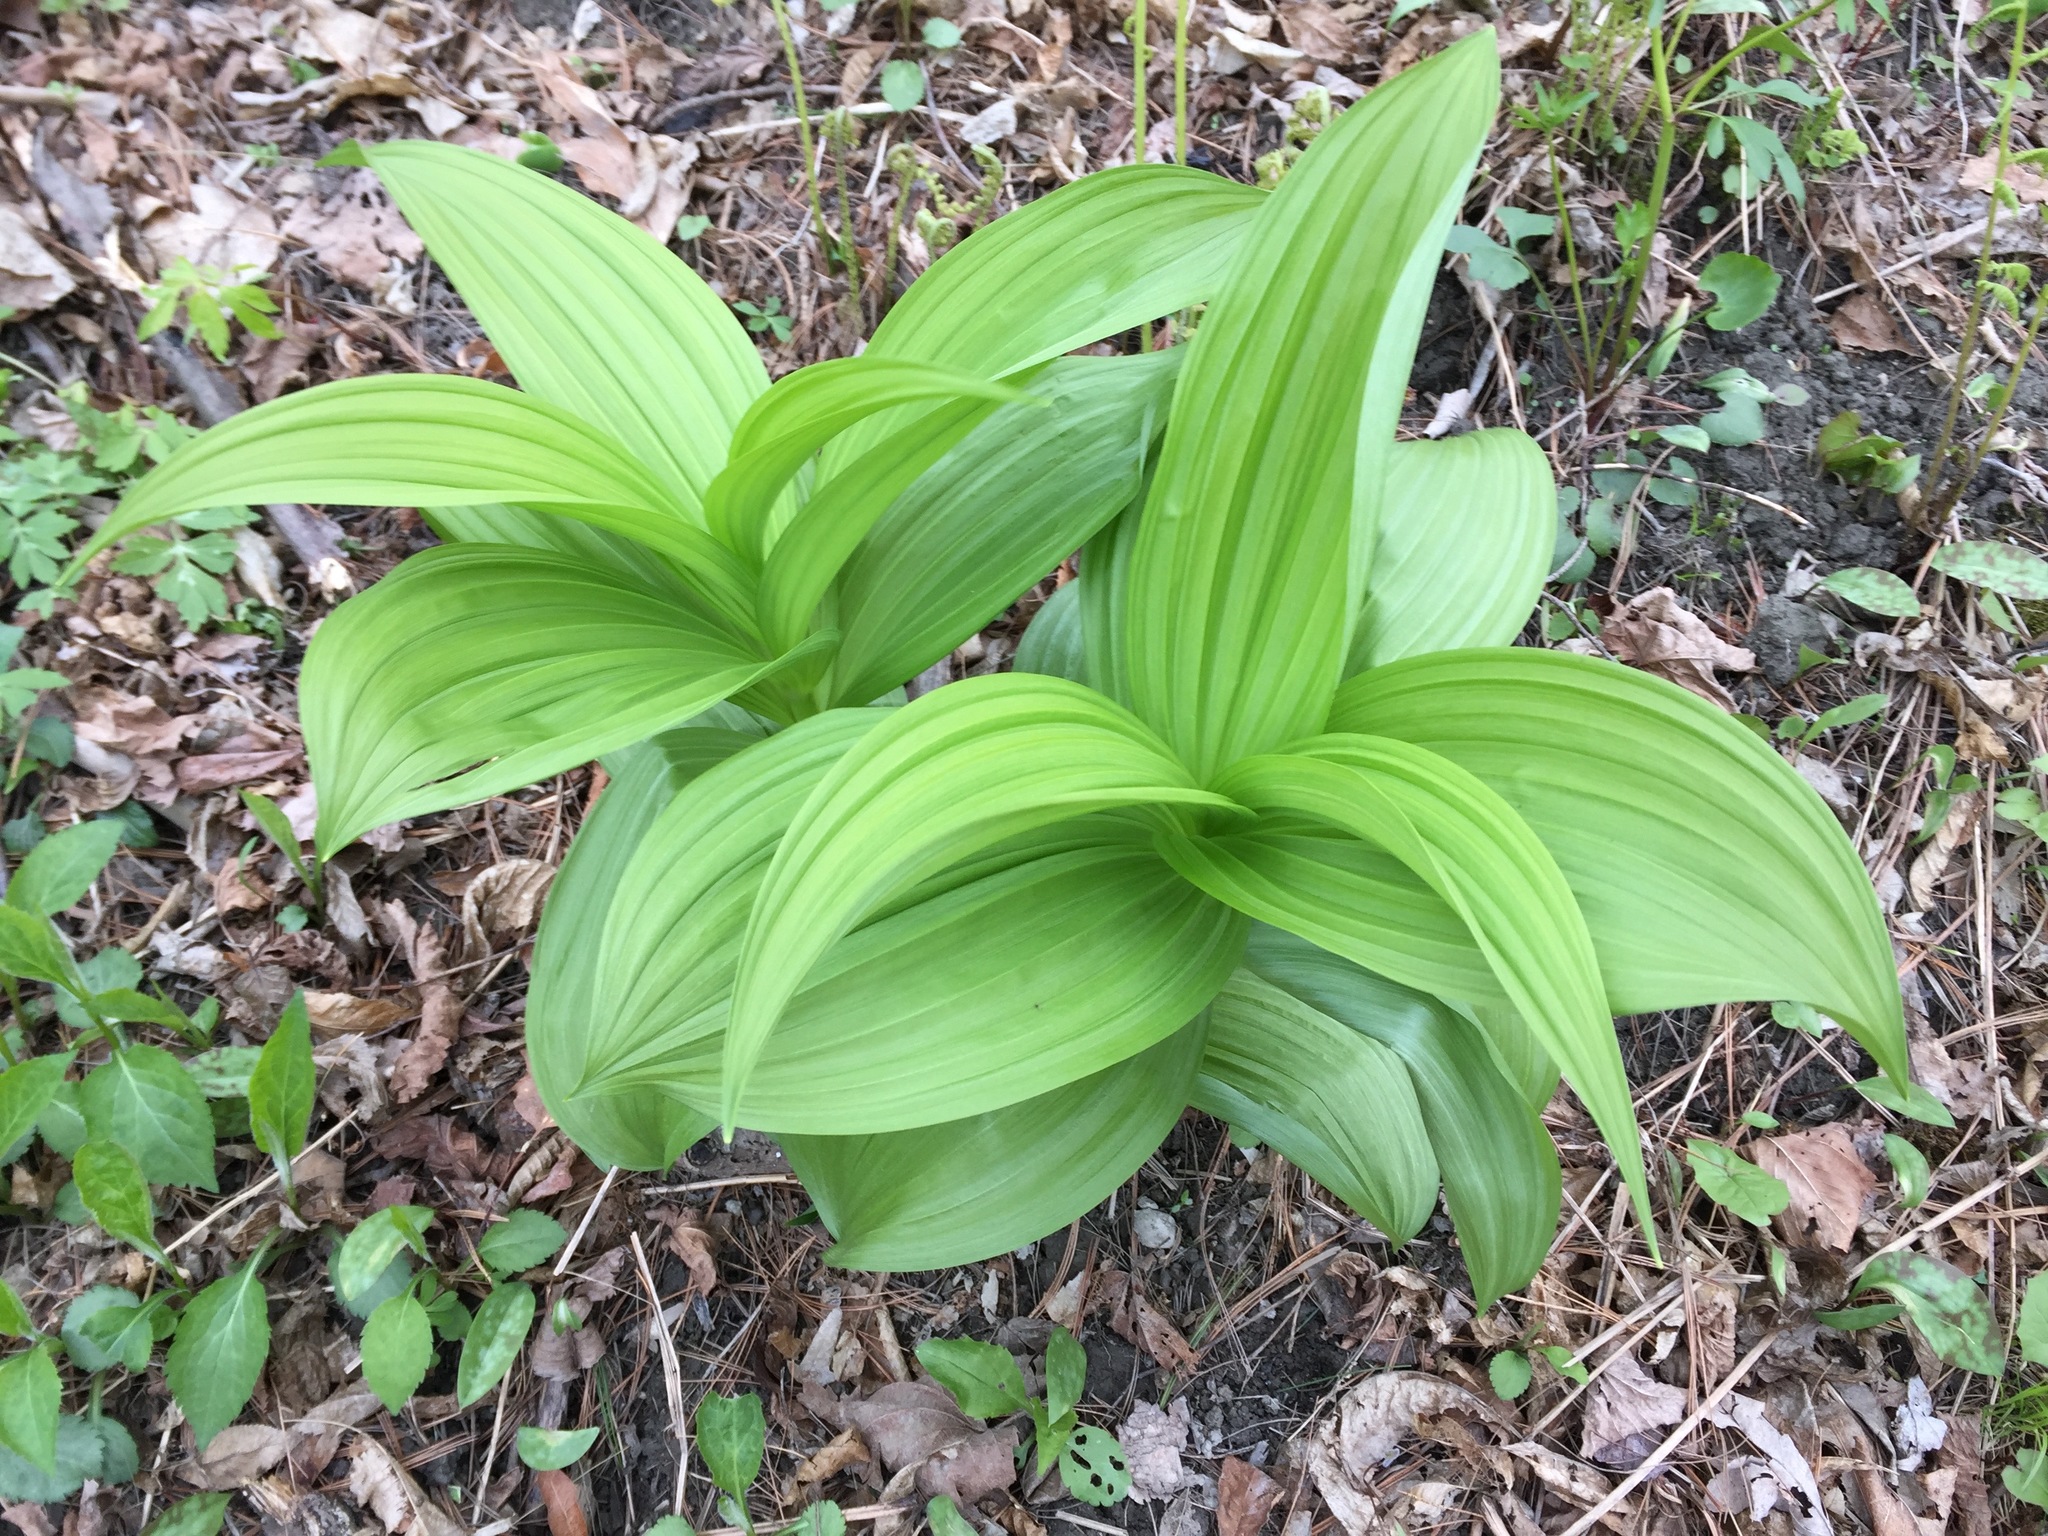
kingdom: Plantae
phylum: Tracheophyta
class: Liliopsida
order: Liliales
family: Melanthiaceae
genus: Veratrum
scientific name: Veratrum viride
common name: American false hellebore
